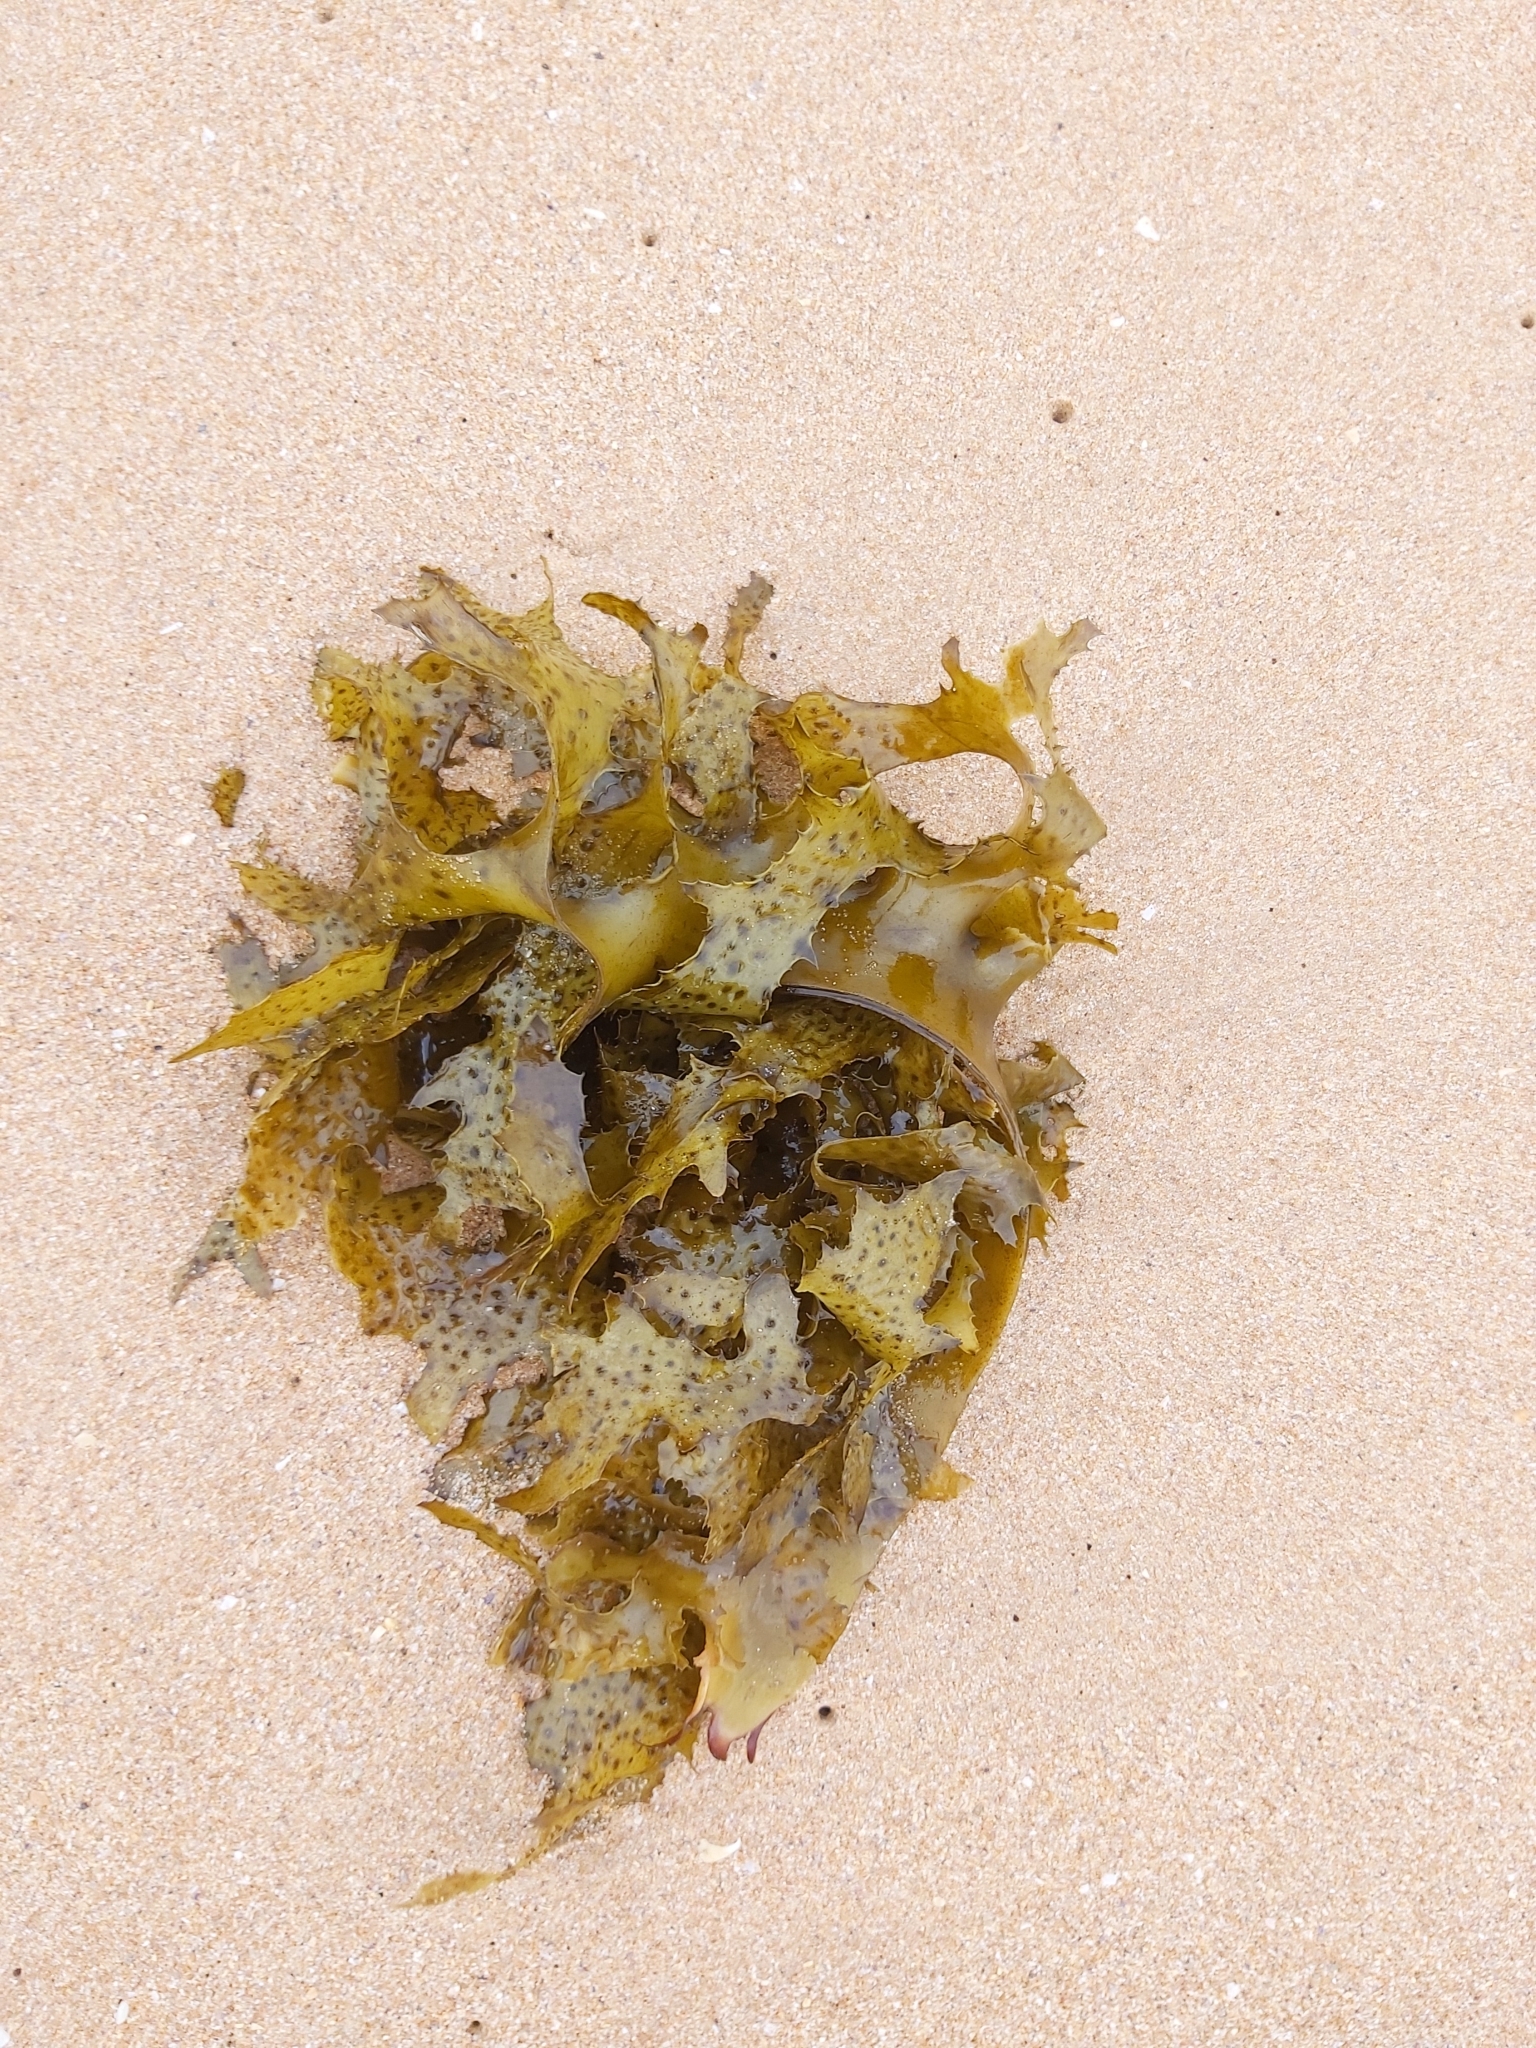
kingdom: Chromista
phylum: Ochrophyta
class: Phaeophyceae
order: Laminariales
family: Lessoniaceae
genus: Ecklonia
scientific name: Ecklonia radiata
